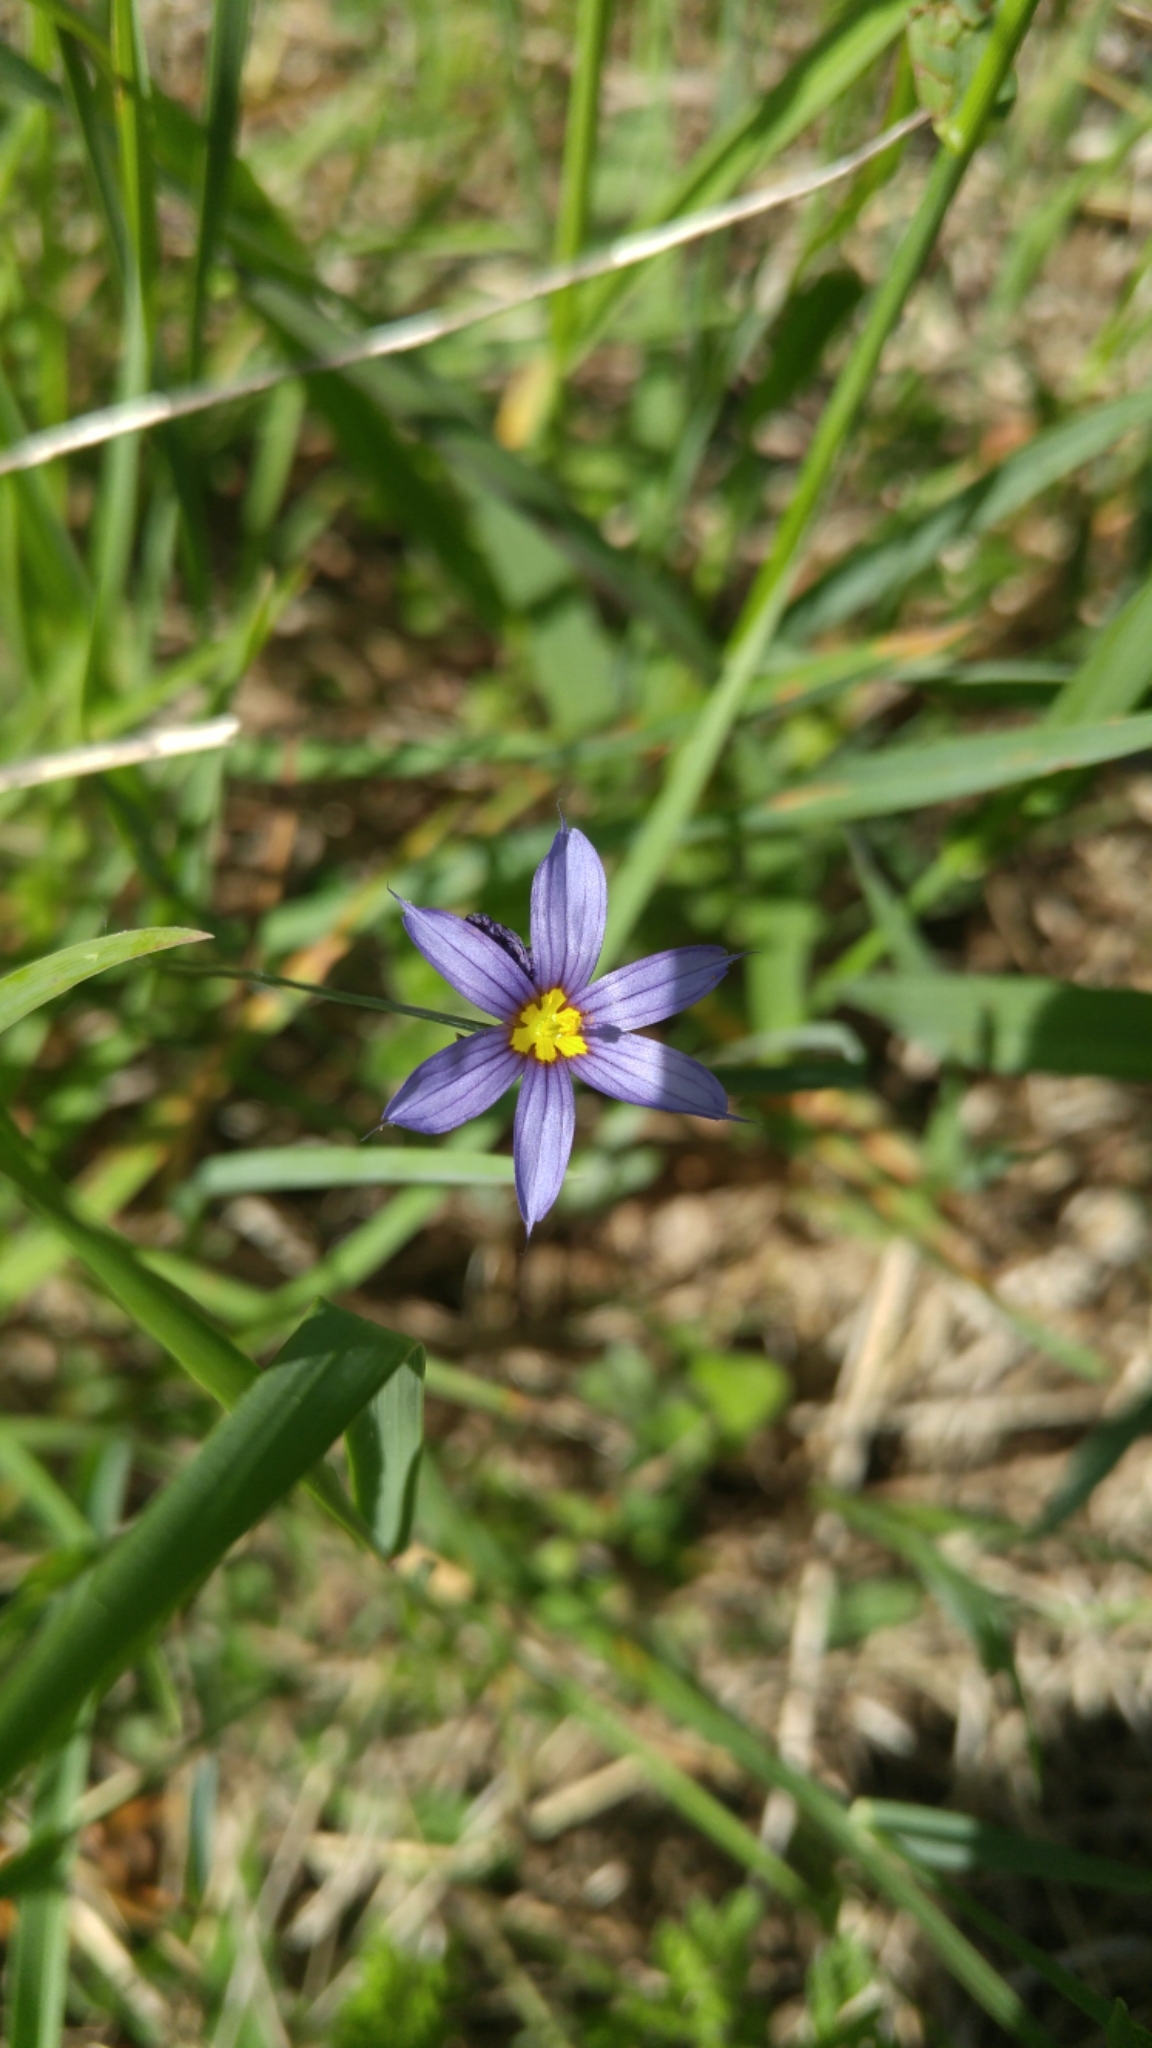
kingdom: Plantae
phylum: Tracheophyta
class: Liliopsida
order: Asparagales
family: Iridaceae
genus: Sisyrinchium
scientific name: Sisyrinchium angustifolium
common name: Narrow-leaf blue-eyed-grass
